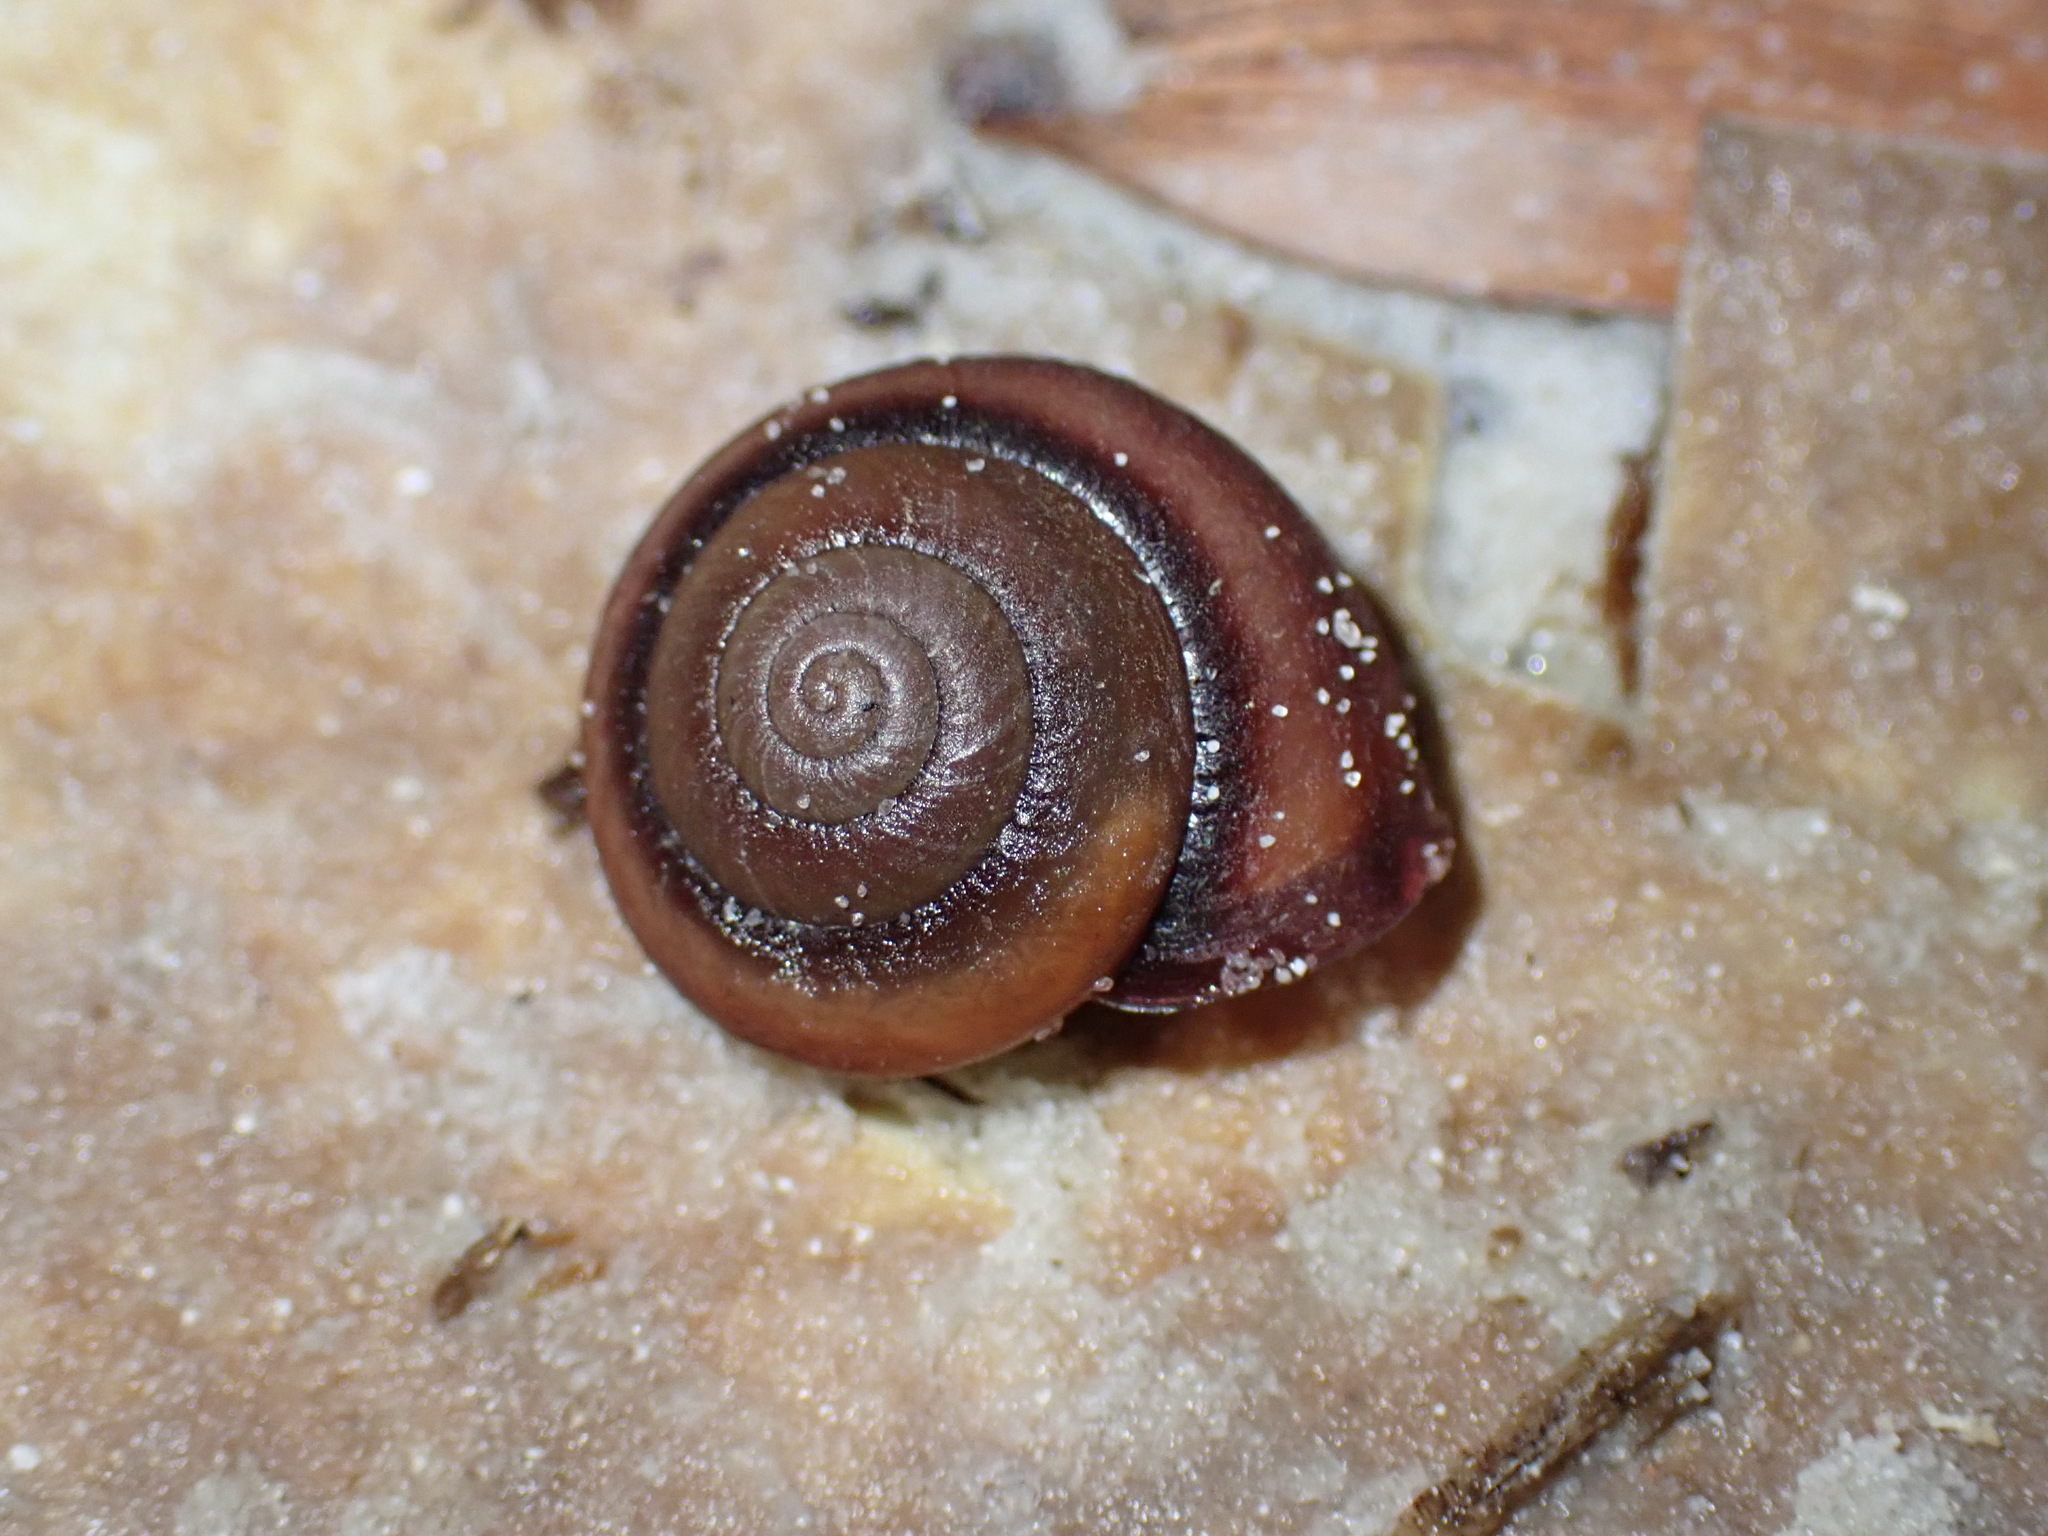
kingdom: Animalia
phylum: Mollusca
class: Gastropoda
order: Stylommatophora
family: Camaenidae
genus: Galadistes
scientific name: Galadistes akubra
